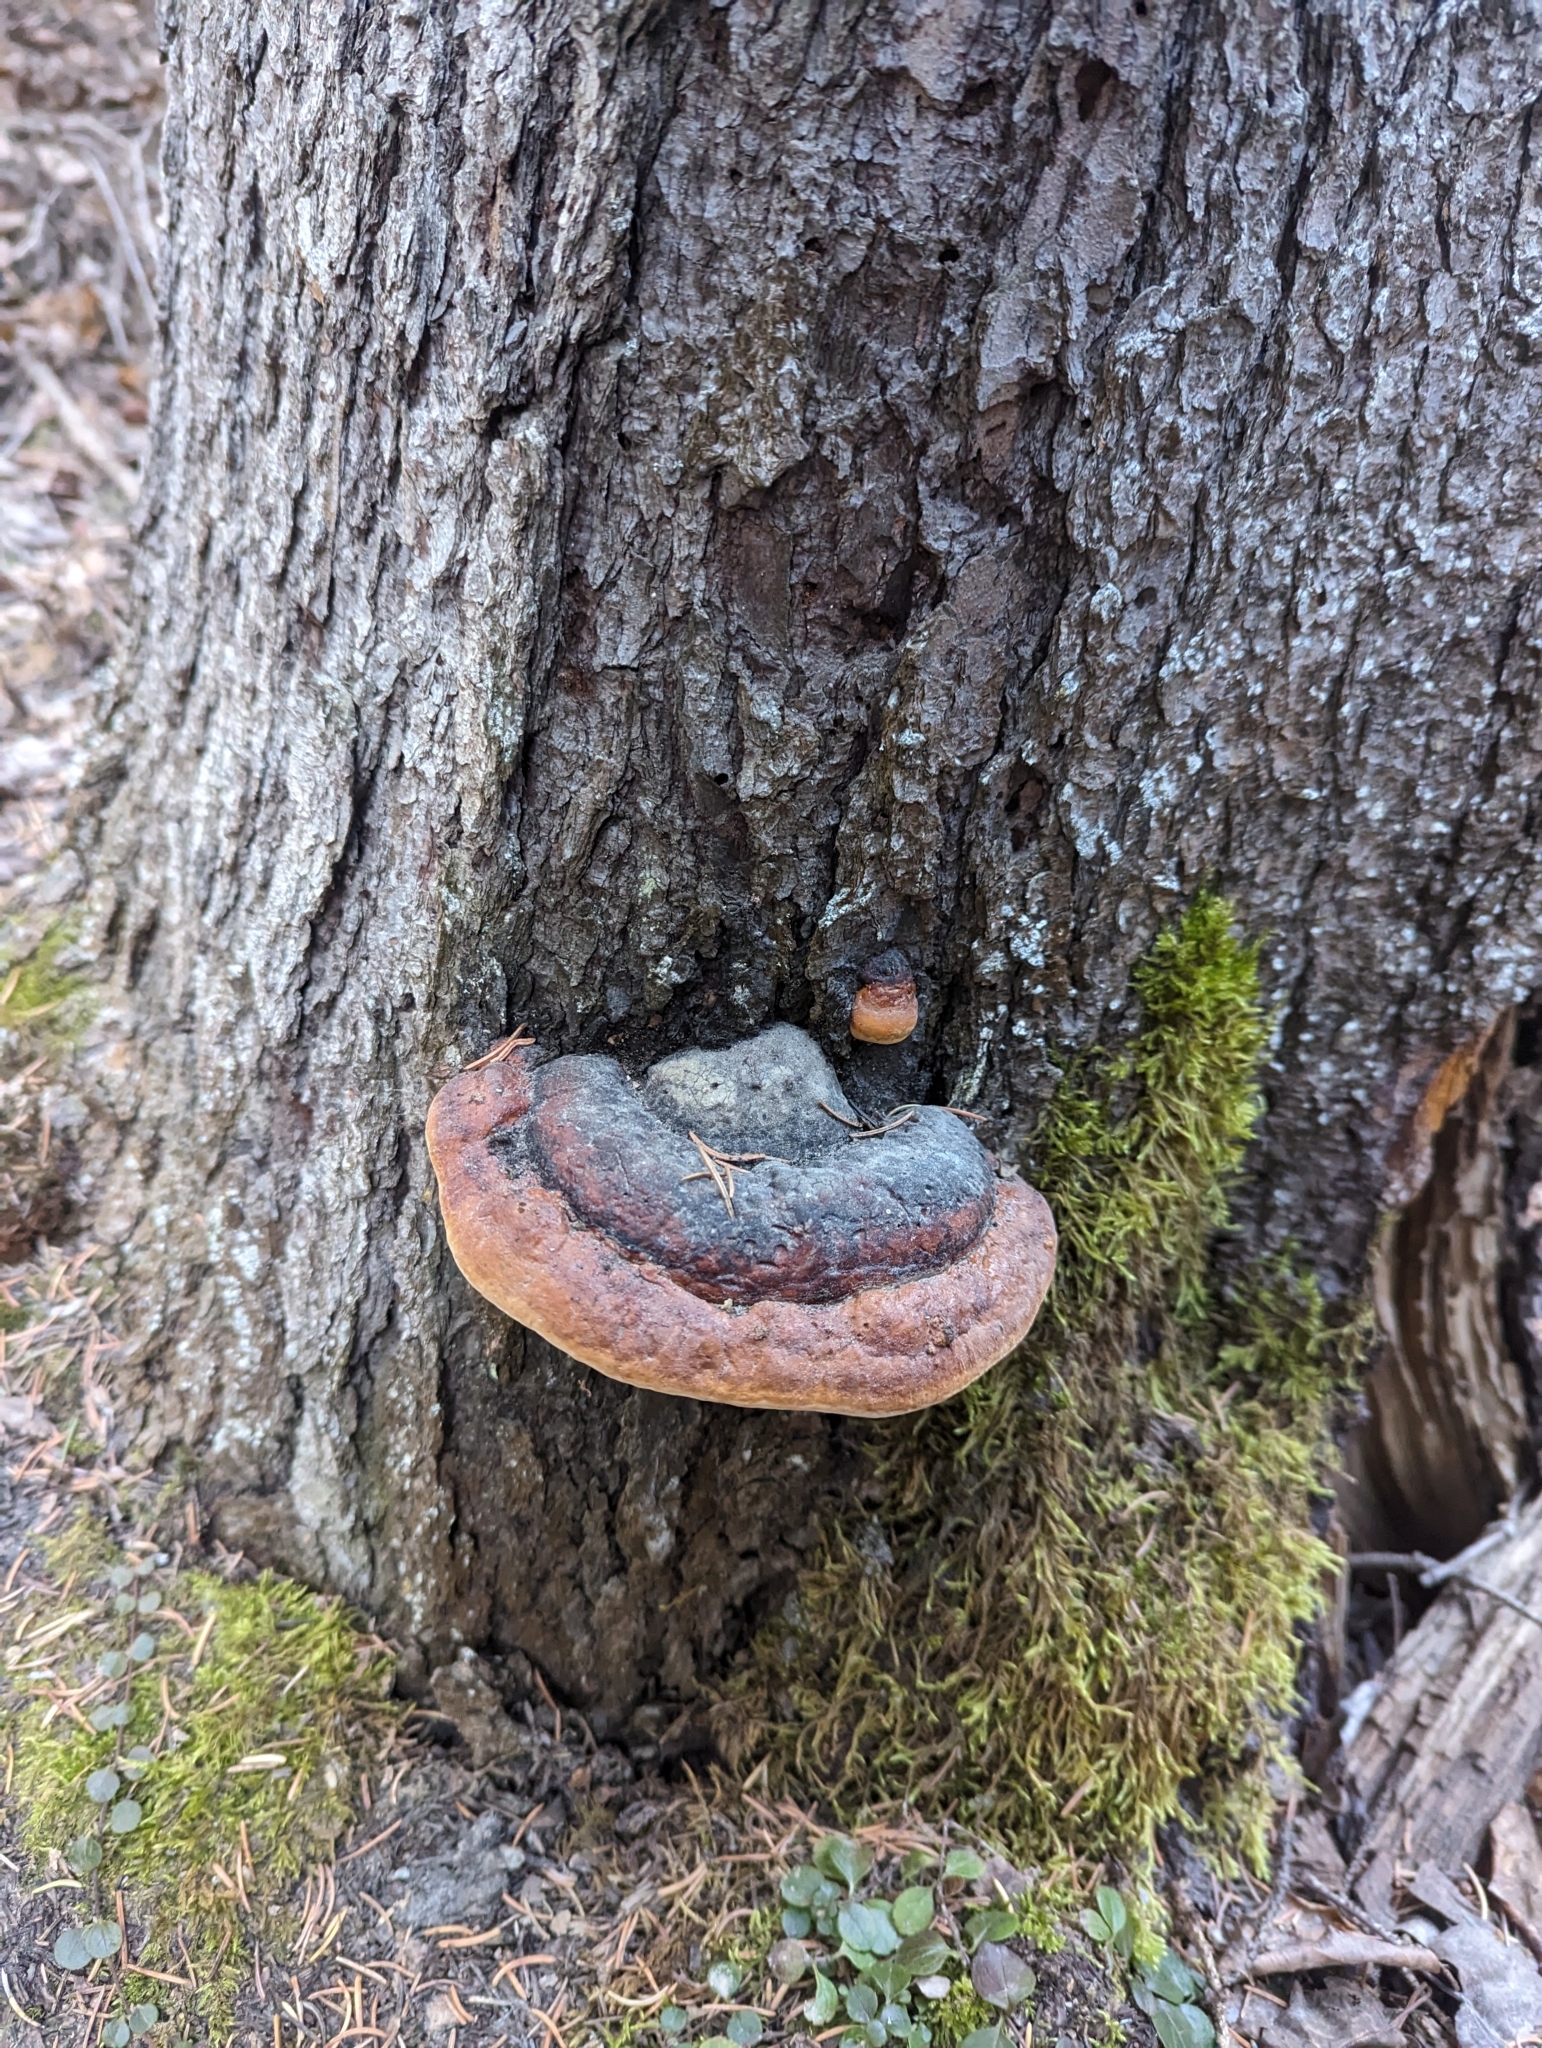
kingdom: Fungi
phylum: Basidiomycota
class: Agaricomycetes
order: Polyporales
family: Fomitopsidaceae
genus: Fomitopsis
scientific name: Fomitopsis mounceae
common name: Northern red belt
